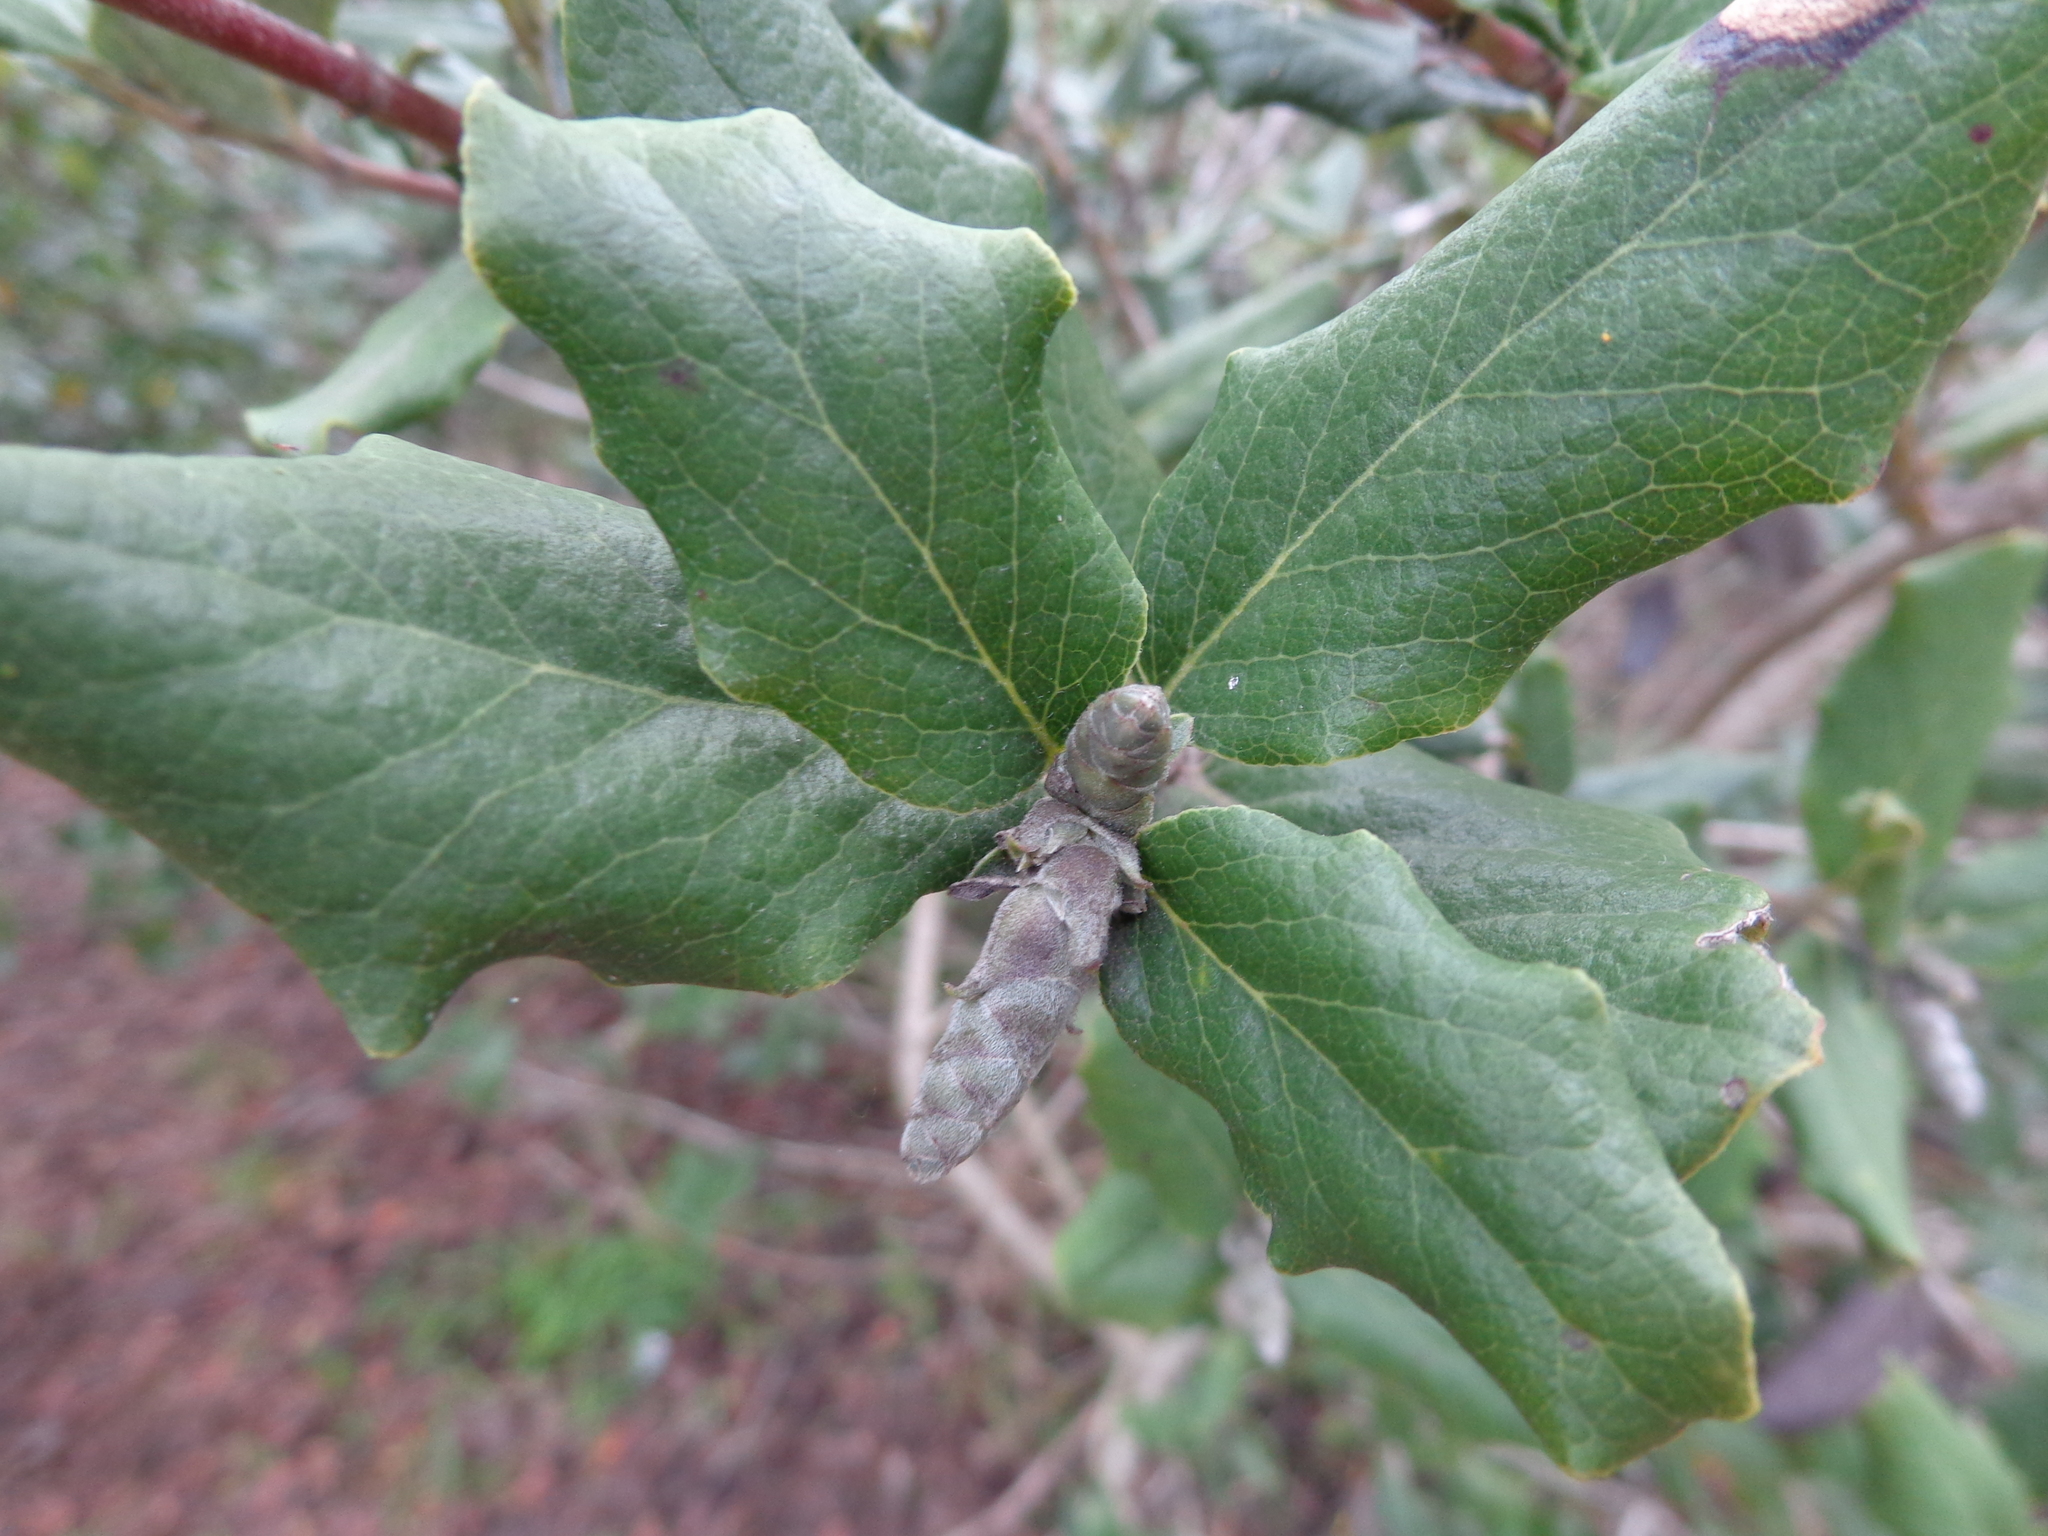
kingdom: Plantae
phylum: Tracheophyta
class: Magnoliopsida
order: Garryales
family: Garryaceae
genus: Garrya
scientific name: Garrya elliptica
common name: Silk-tassel
